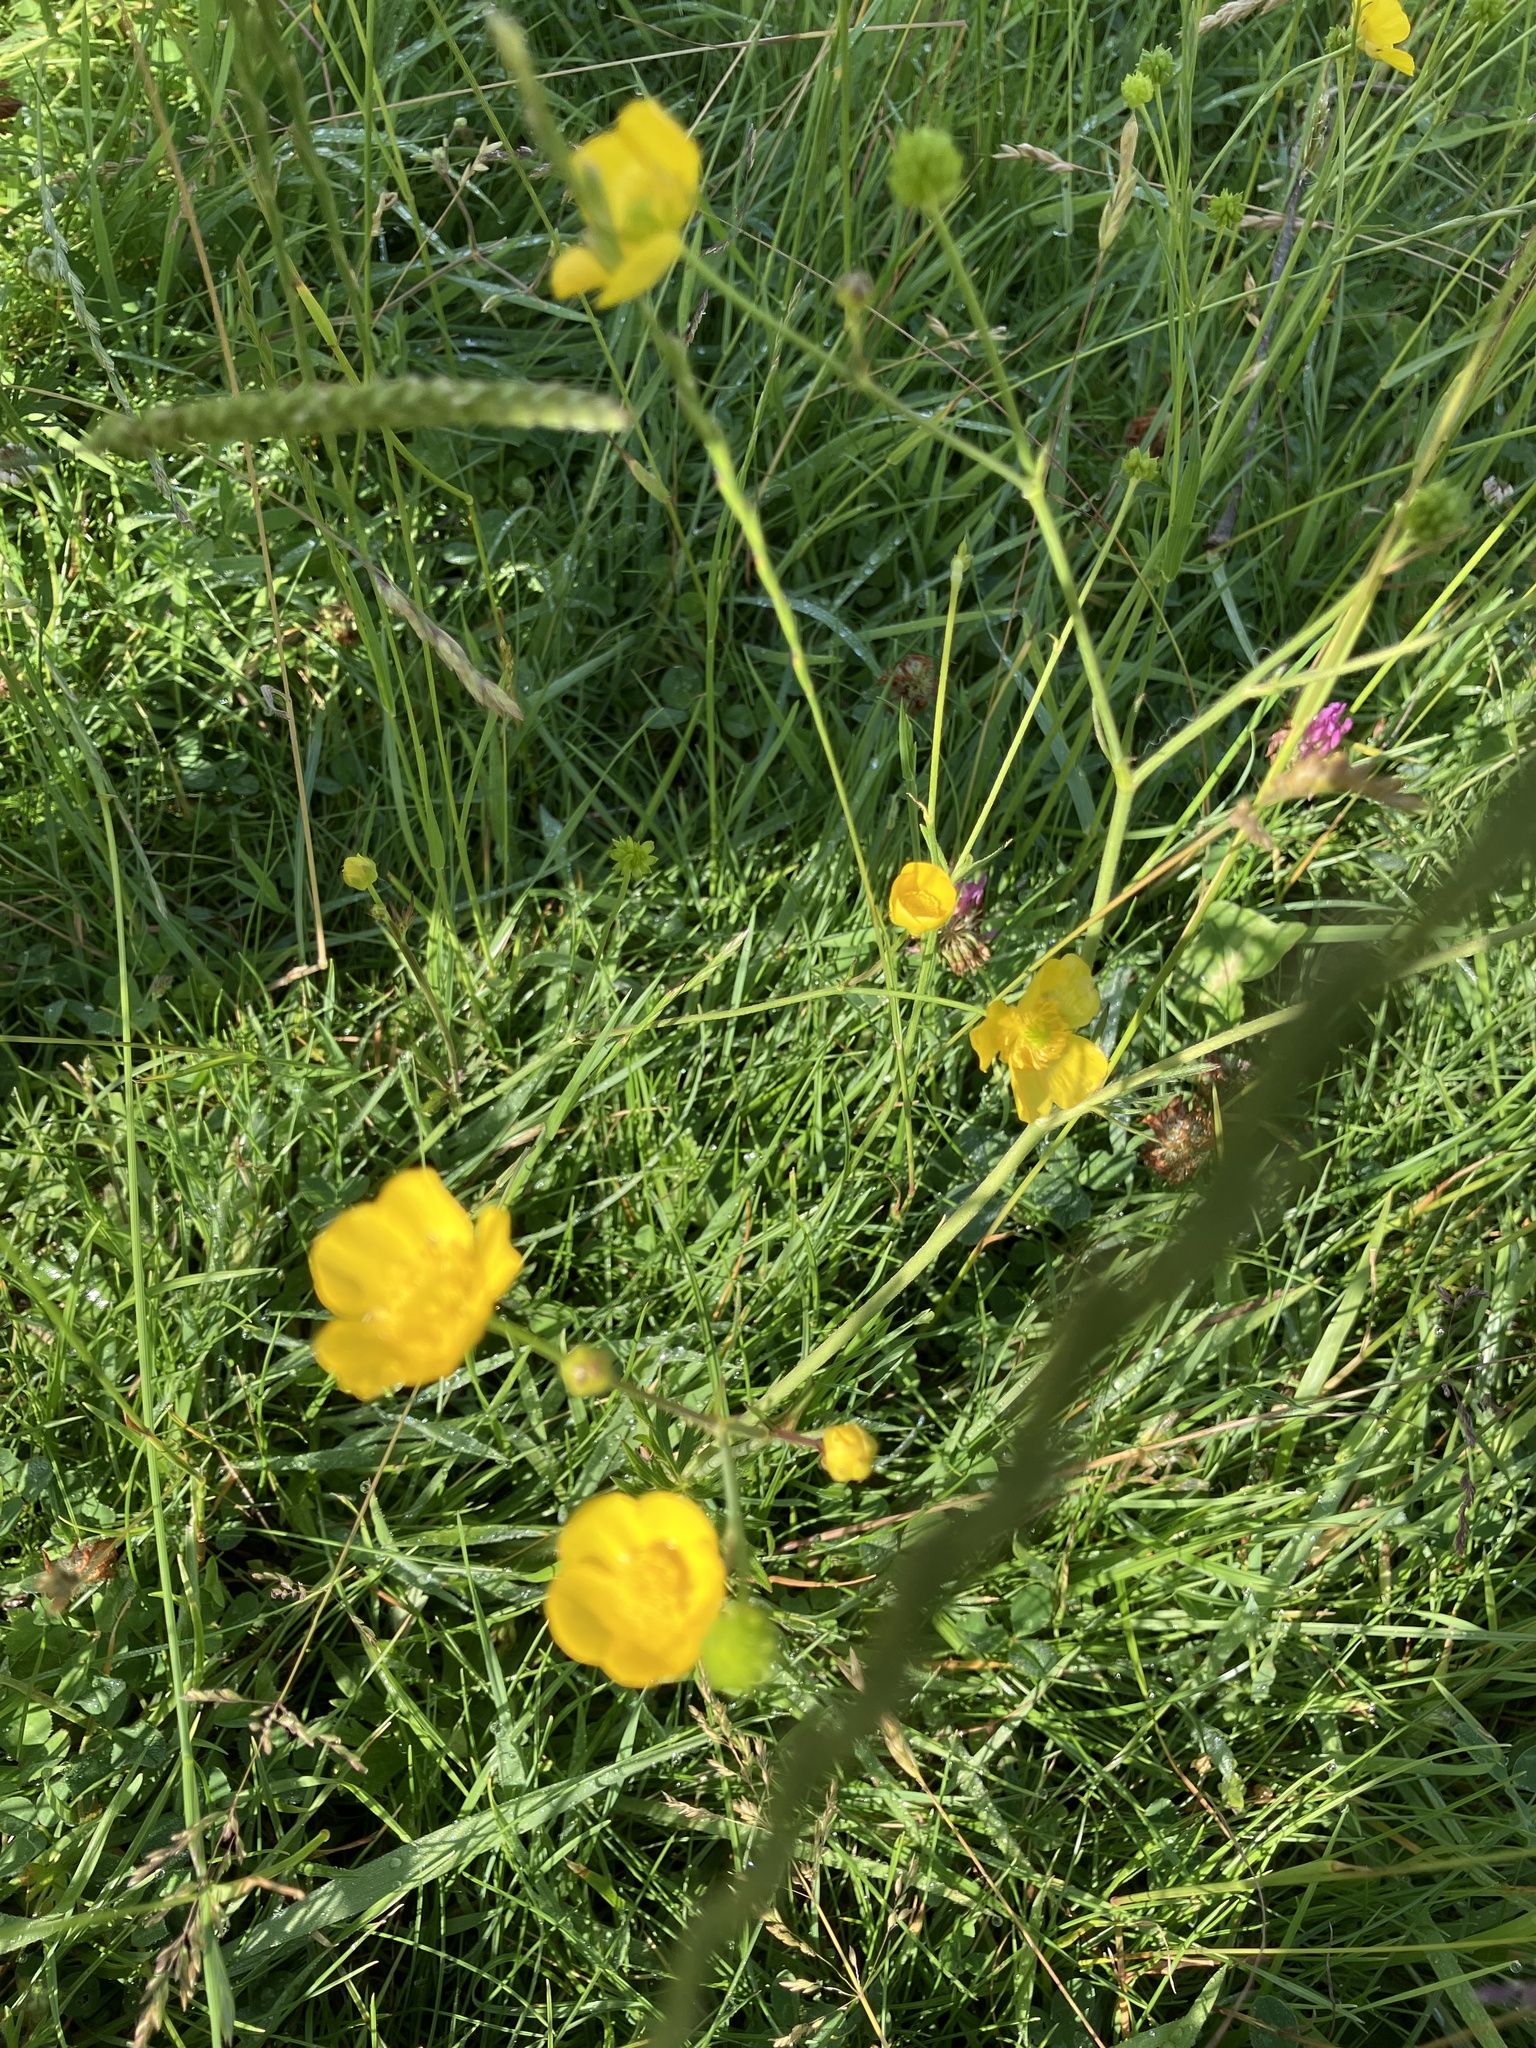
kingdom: Plantae
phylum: Tracheophyta
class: Magnoliopsida
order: Ranunculales
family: Ranunculaceae
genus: Ranunculus
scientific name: Ranunculus acris
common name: Meadow buttercup
